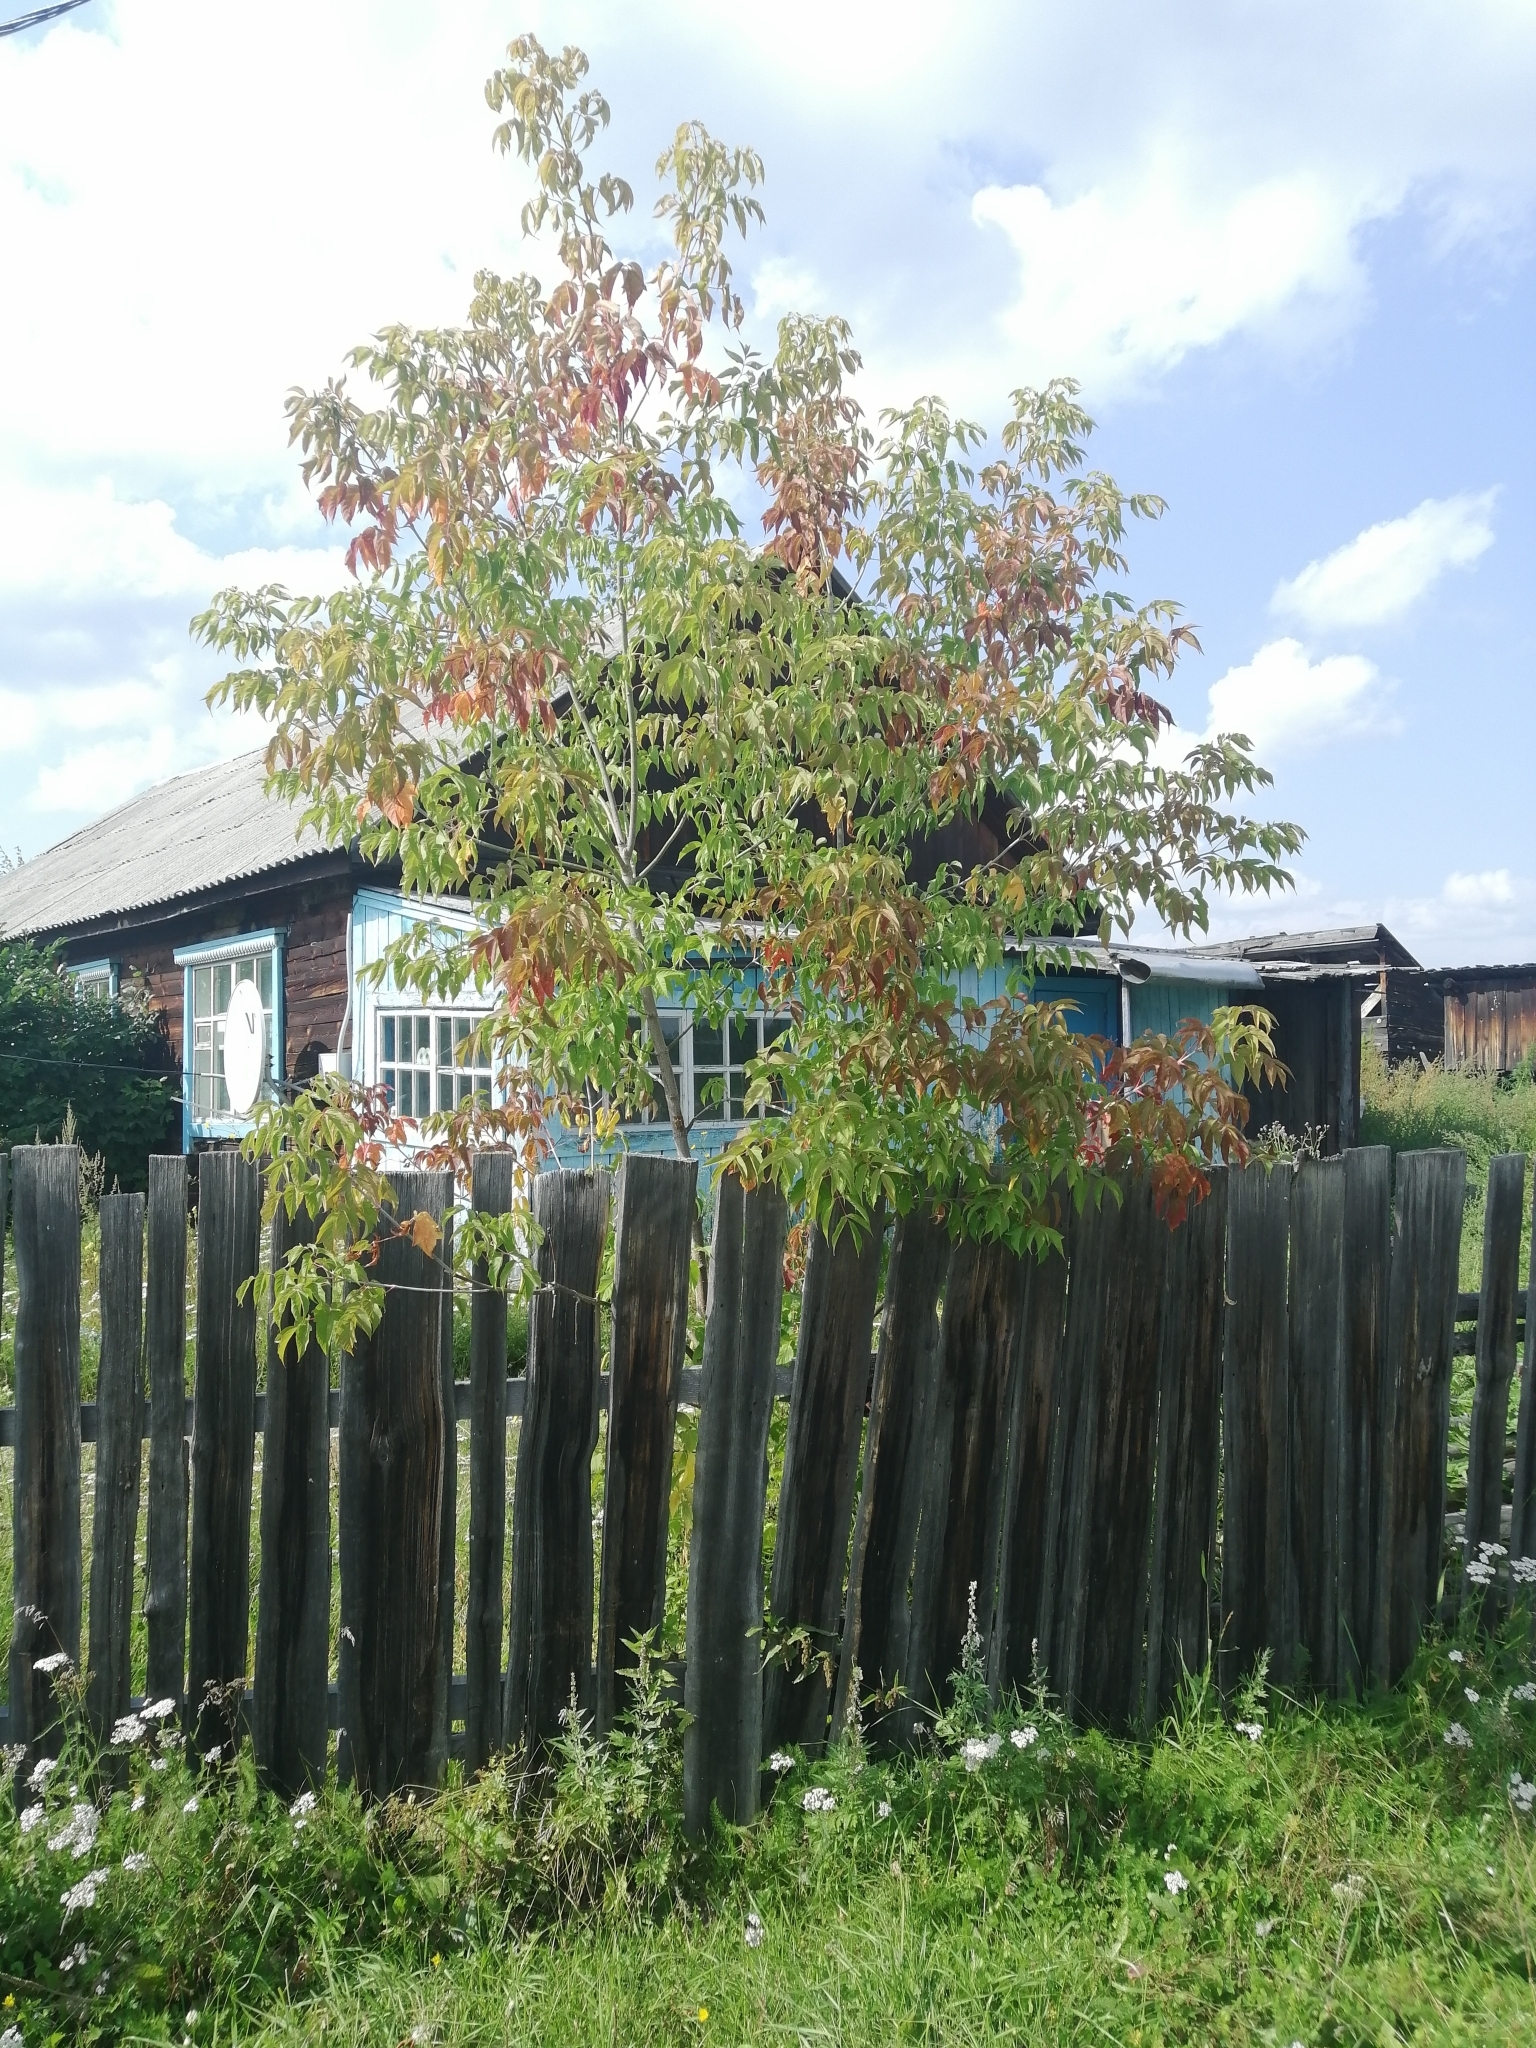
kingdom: Plantae
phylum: Tracheophyta
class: Magnoliopsida
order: Sapindales
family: Sapindaceae
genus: Acer
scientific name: Acer negundo
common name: Ashleaf maple
